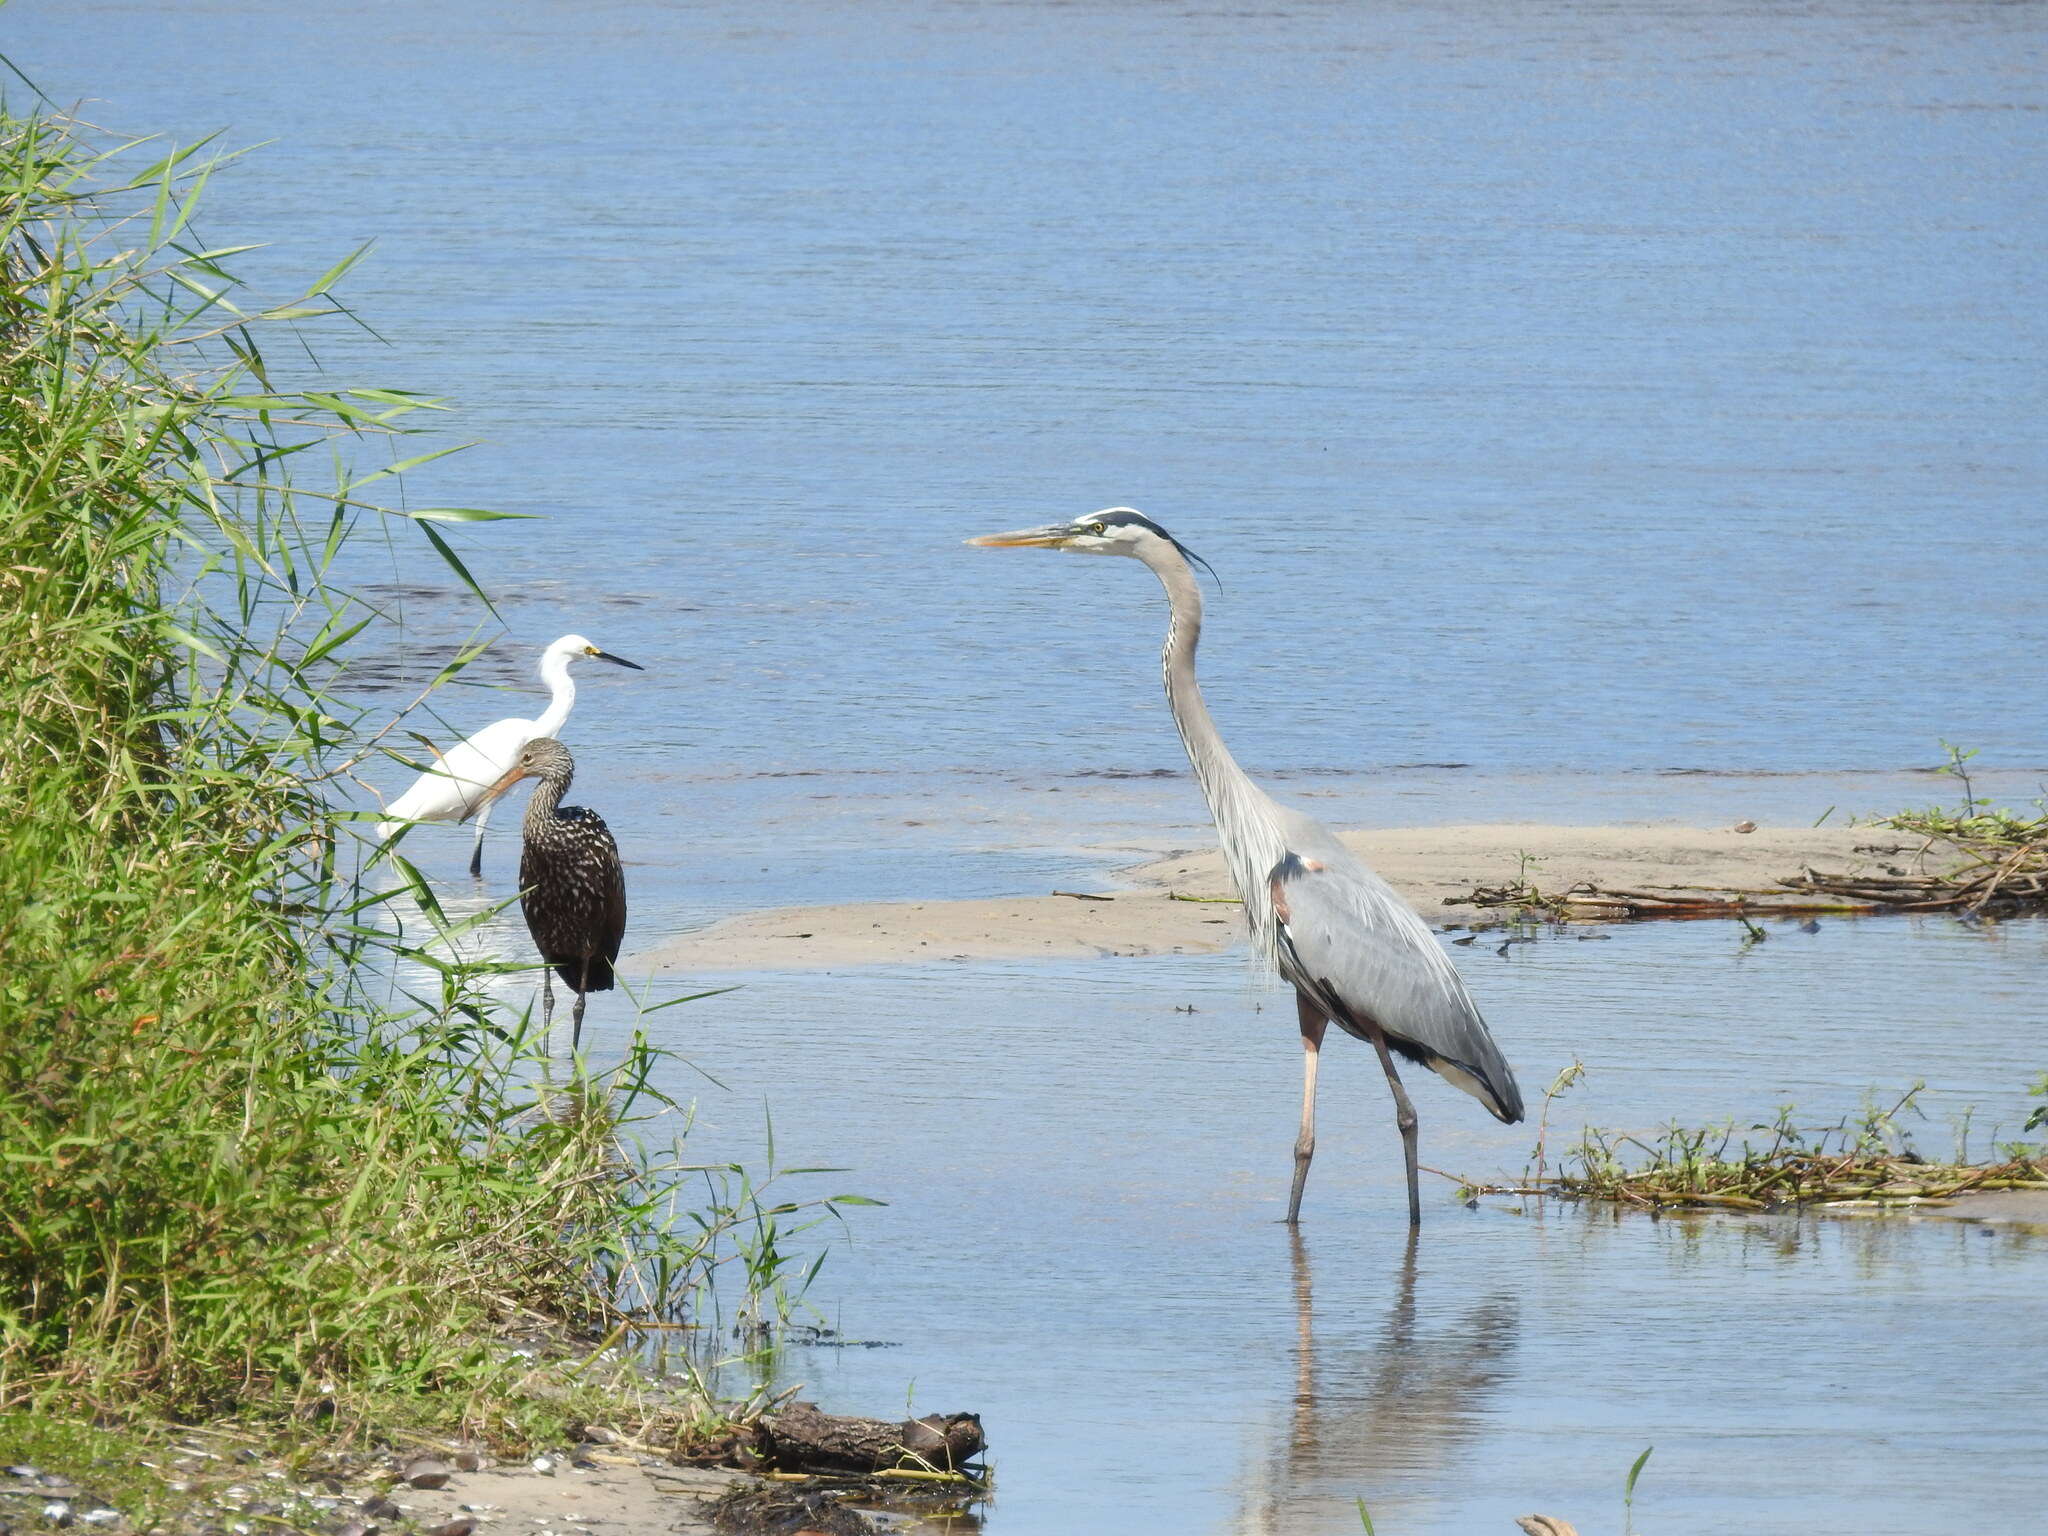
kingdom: Animalia
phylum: Chordata
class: Aves
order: Pelecaniformes
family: Ardeidae
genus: Egretta
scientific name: Egretta thula
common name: Snowy egret
